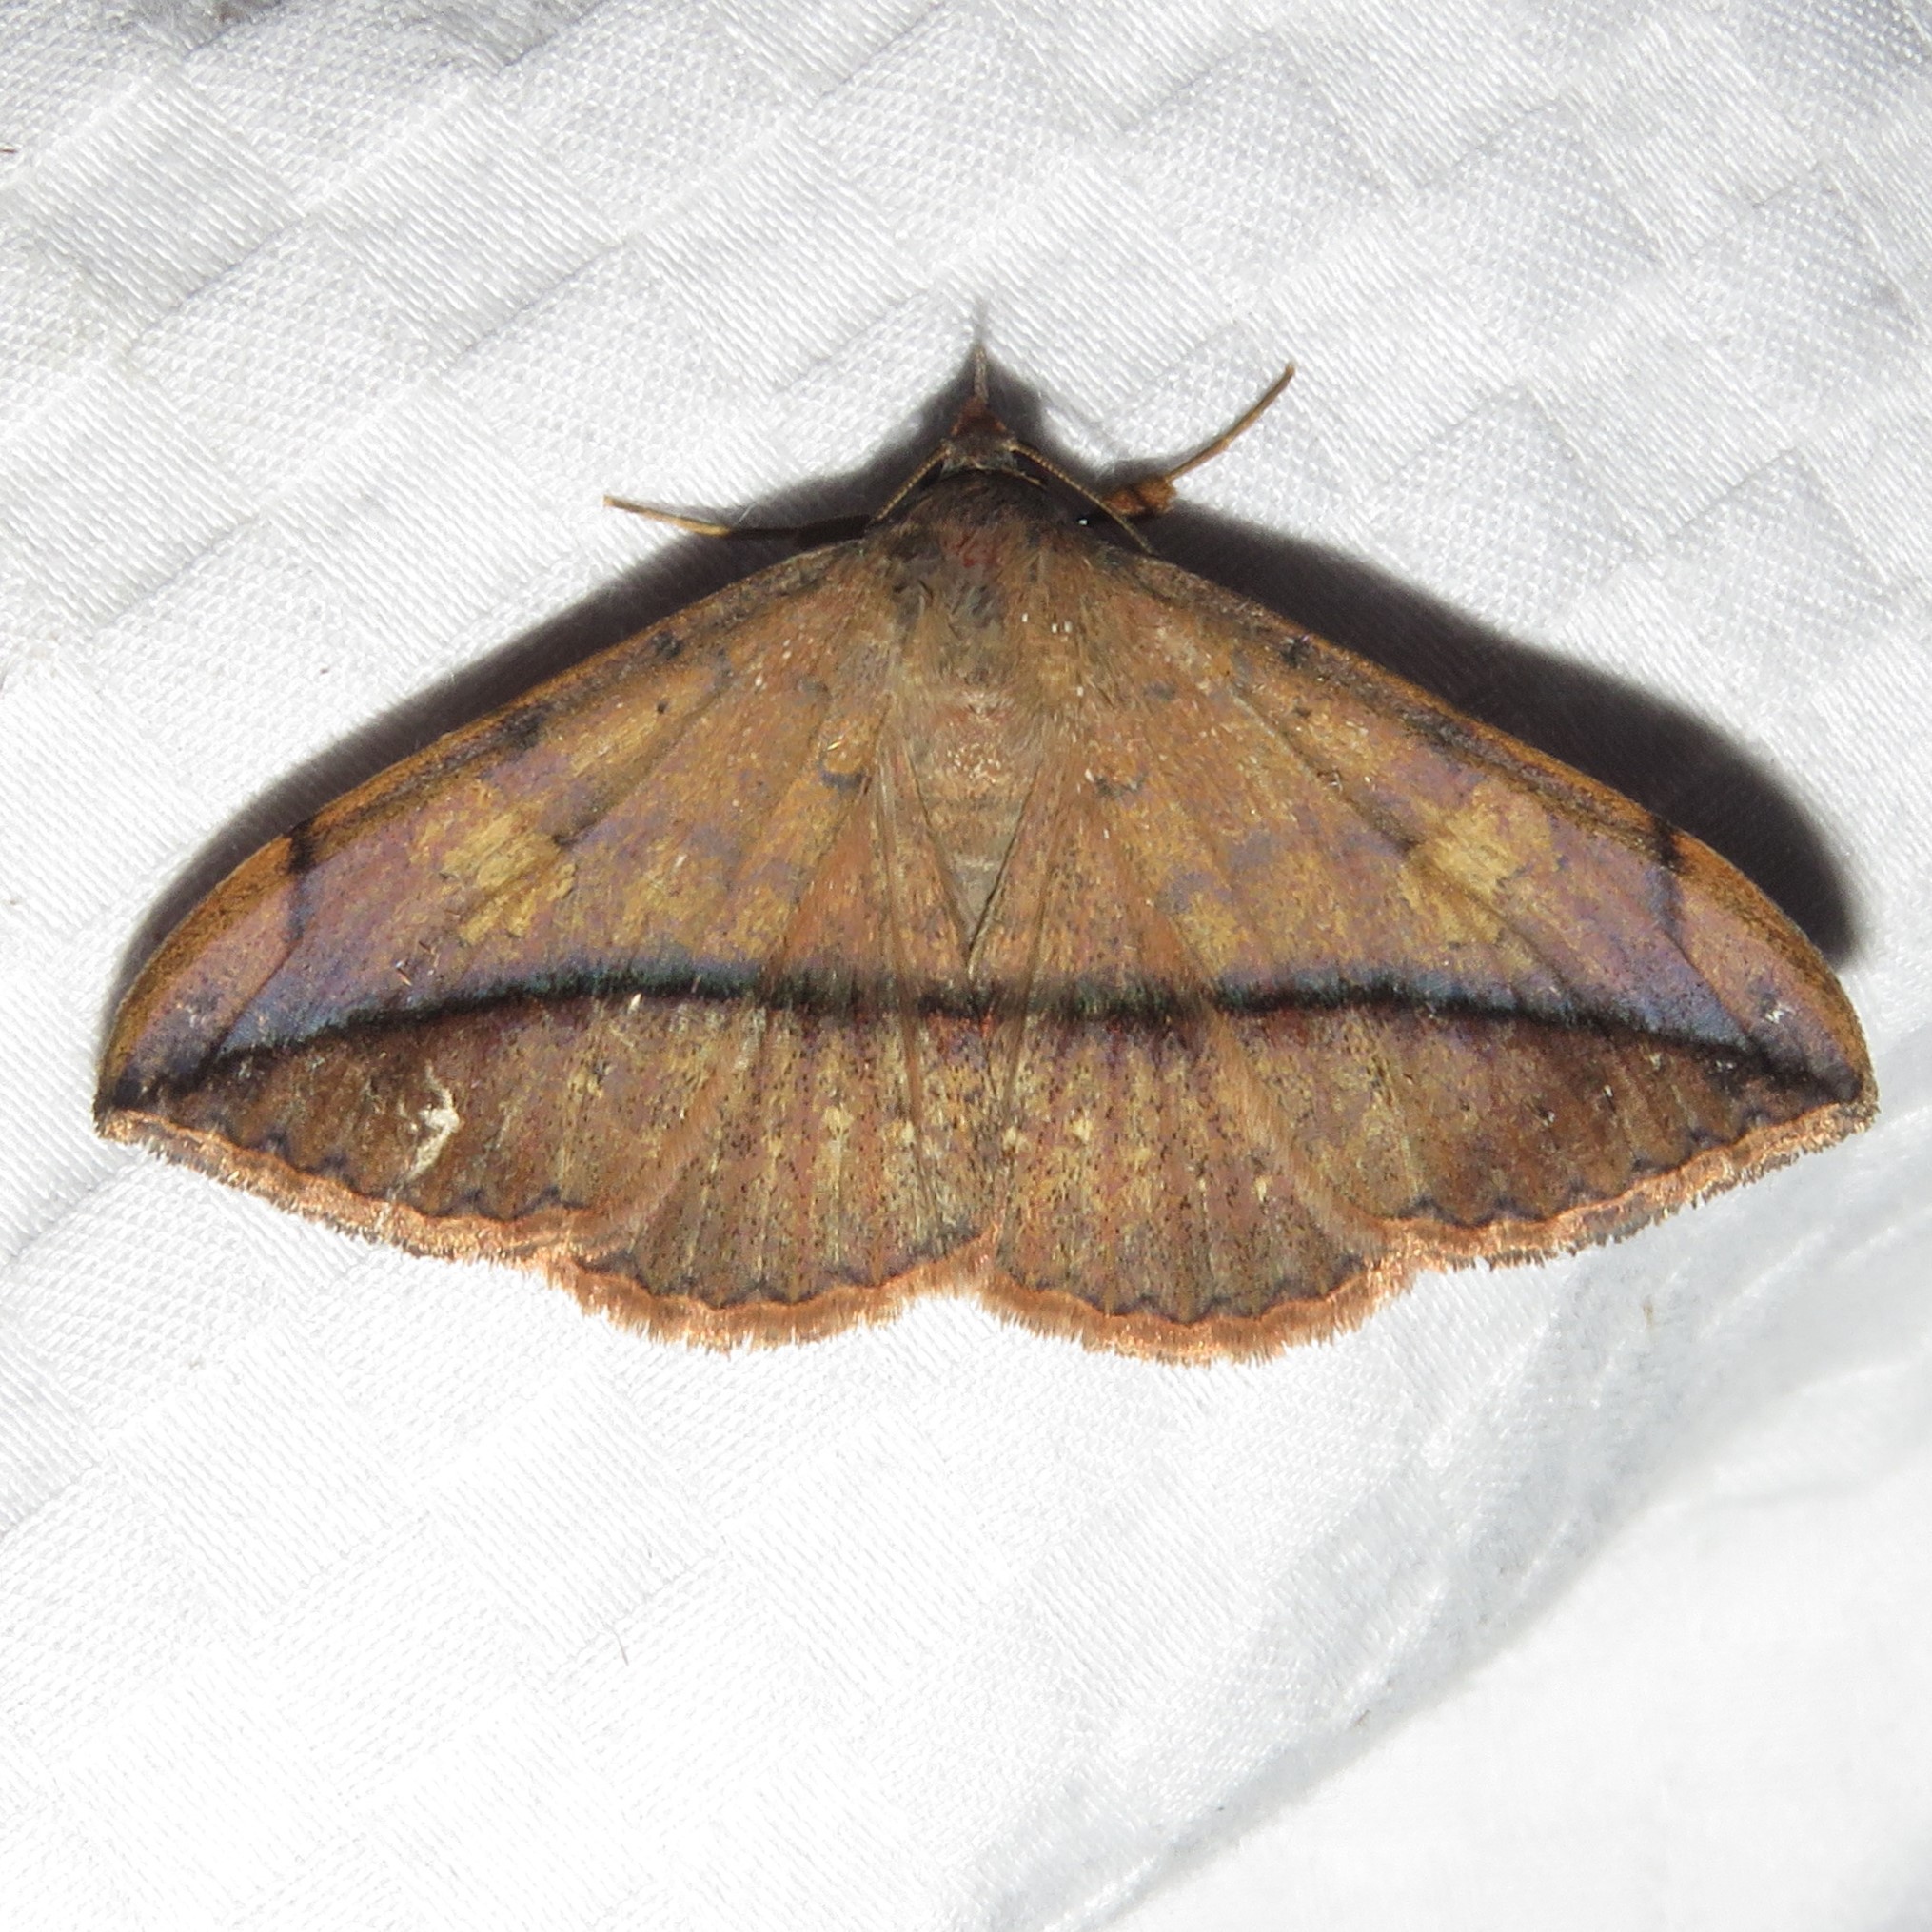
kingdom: Animalia
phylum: Arthropoda
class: Insecta
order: Lepidoptera
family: Erebidae
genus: Anticarsia
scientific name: Anticarsia gemmatalis
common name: Cutworm moth
